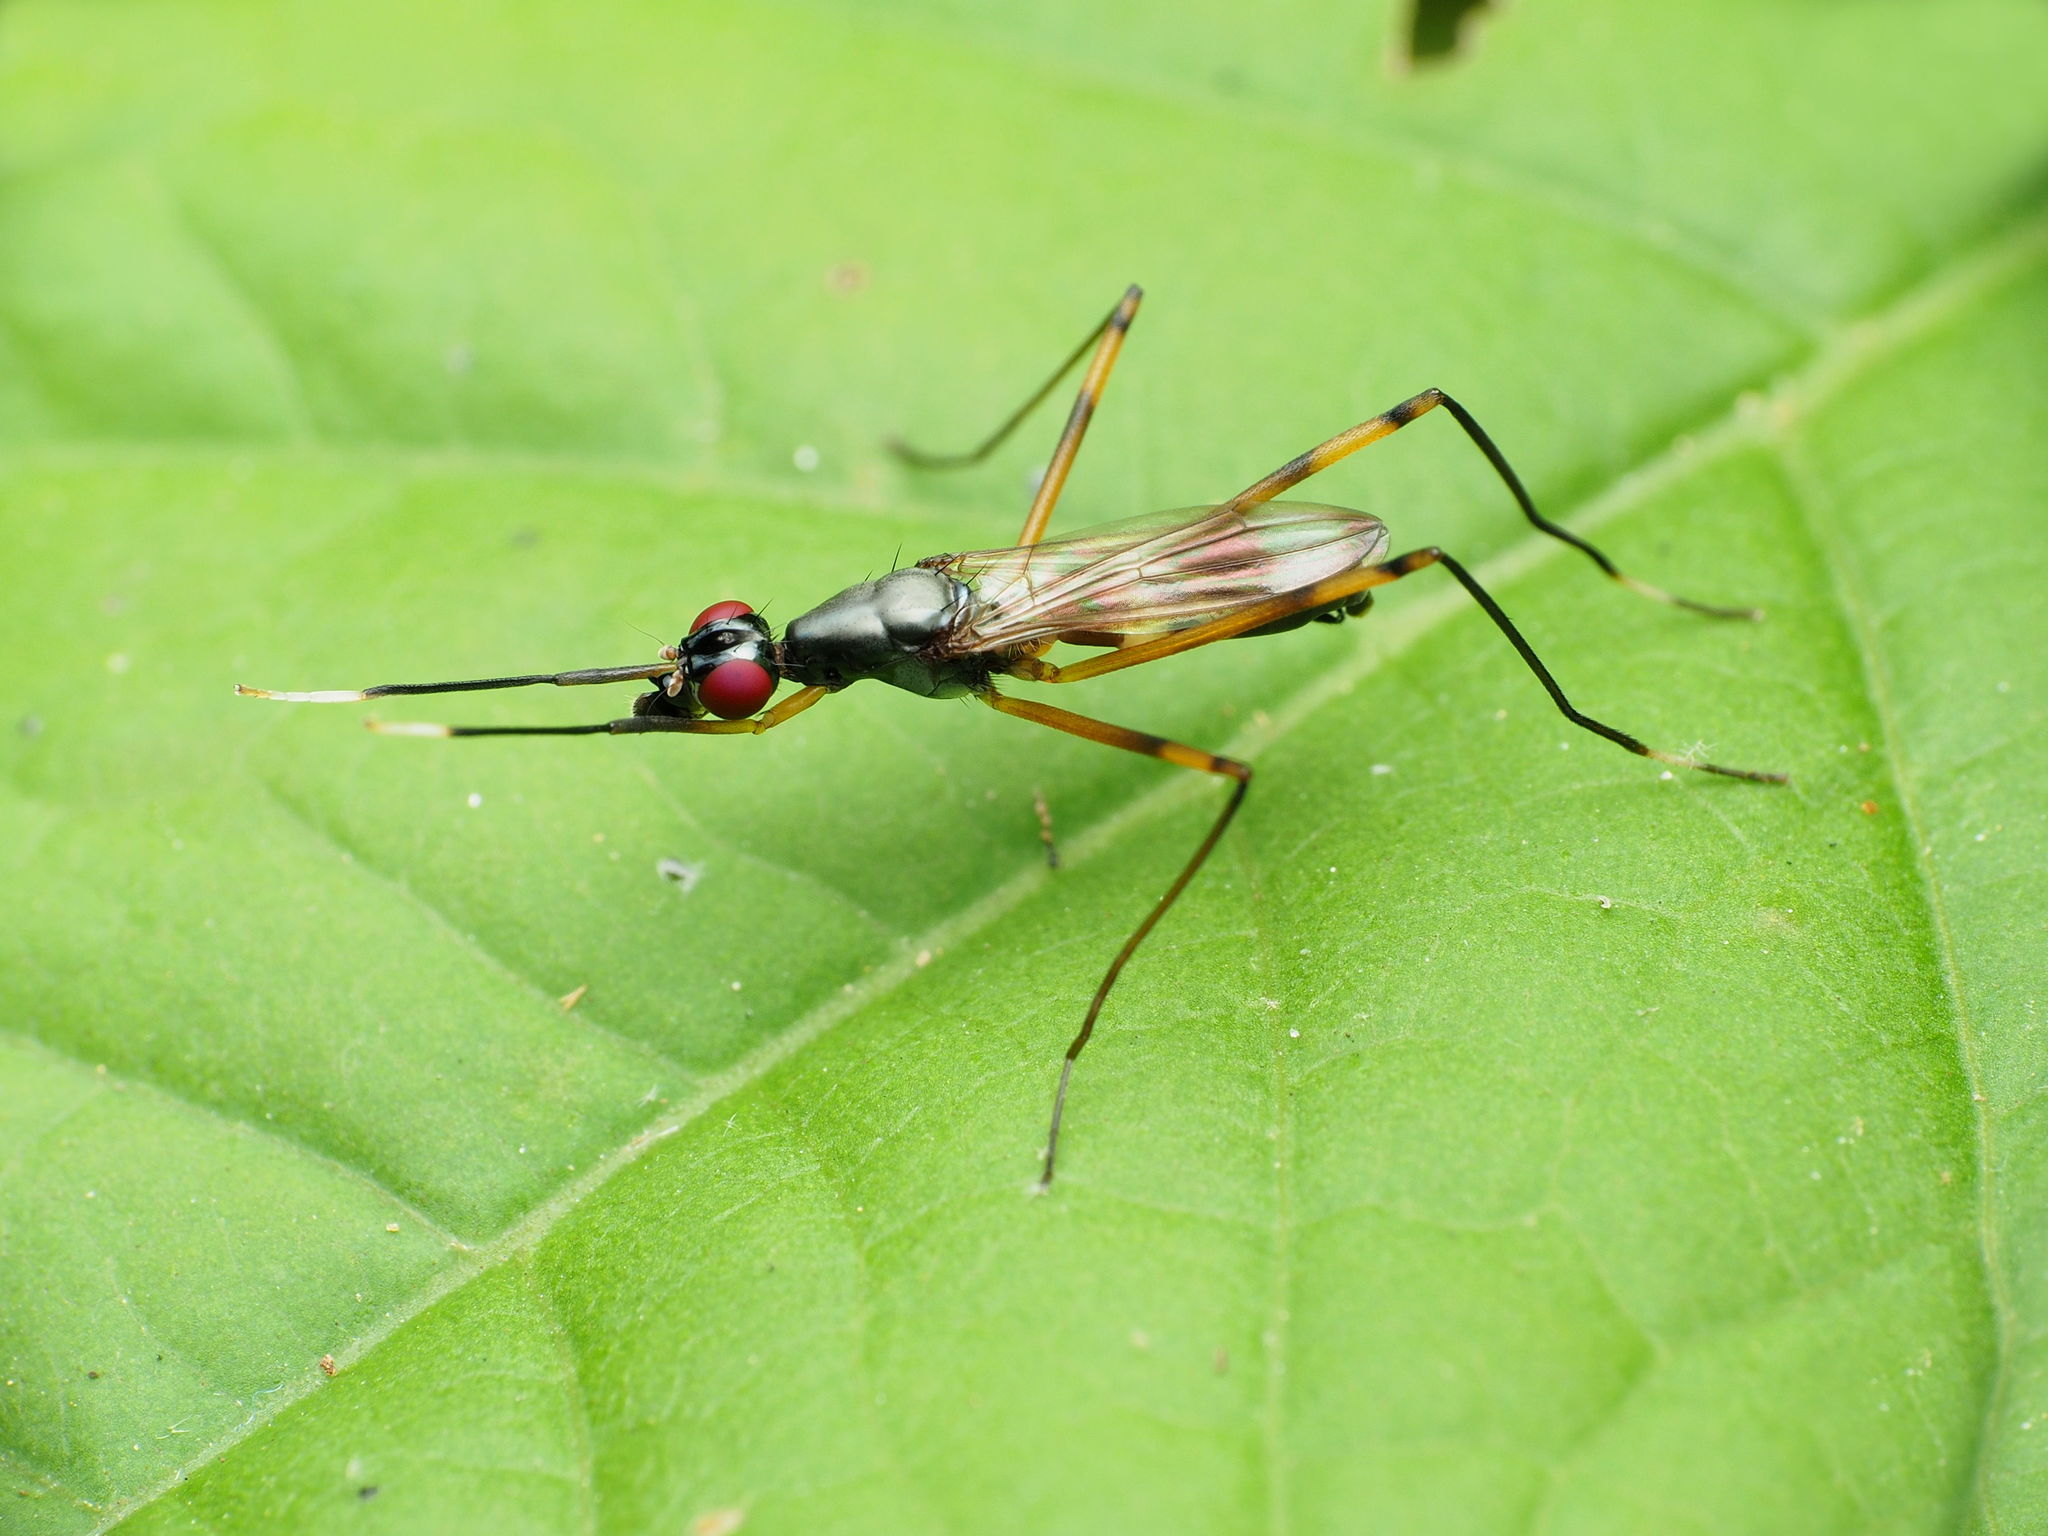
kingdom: Animalia
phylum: Arthropoda
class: Insecta
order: Diptera
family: Micropezidae
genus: Rainieria
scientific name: Rainieria antennaepes
